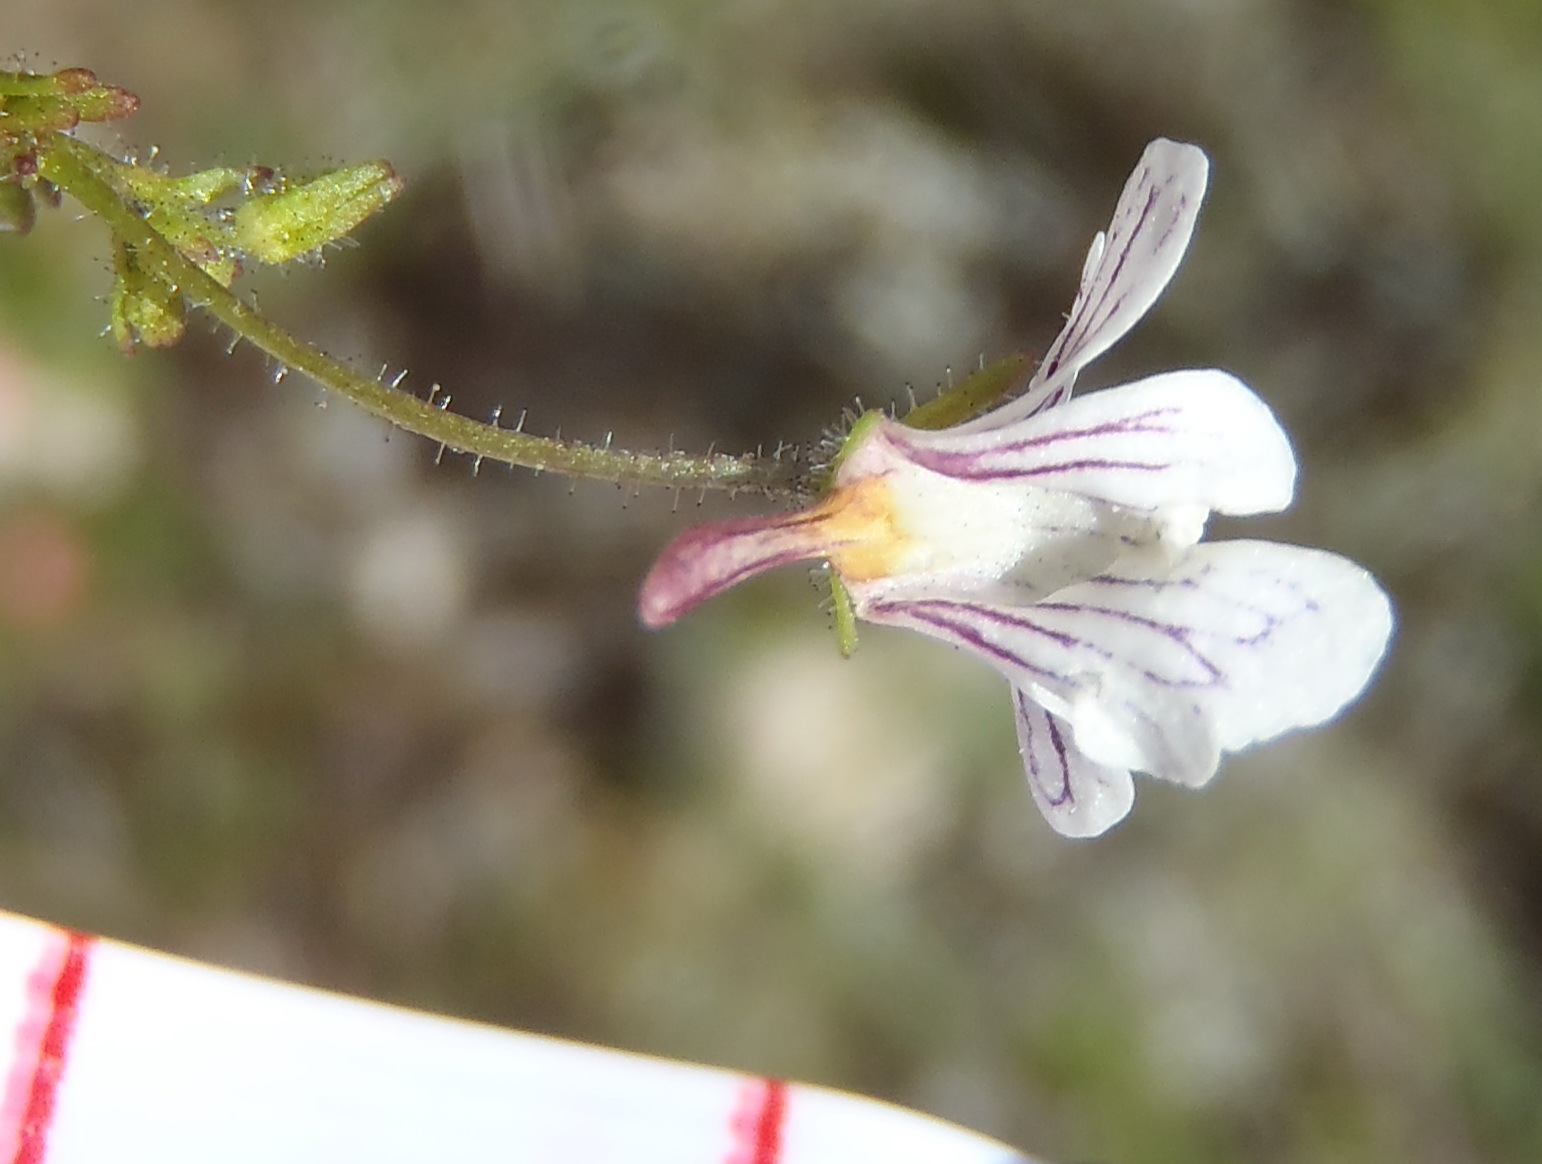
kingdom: Plantae
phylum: Tracheophyta
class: Magnoliopsida
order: Lamiales
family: Scrophulariaceae
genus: Nemesia
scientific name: Nemesia bicornis
